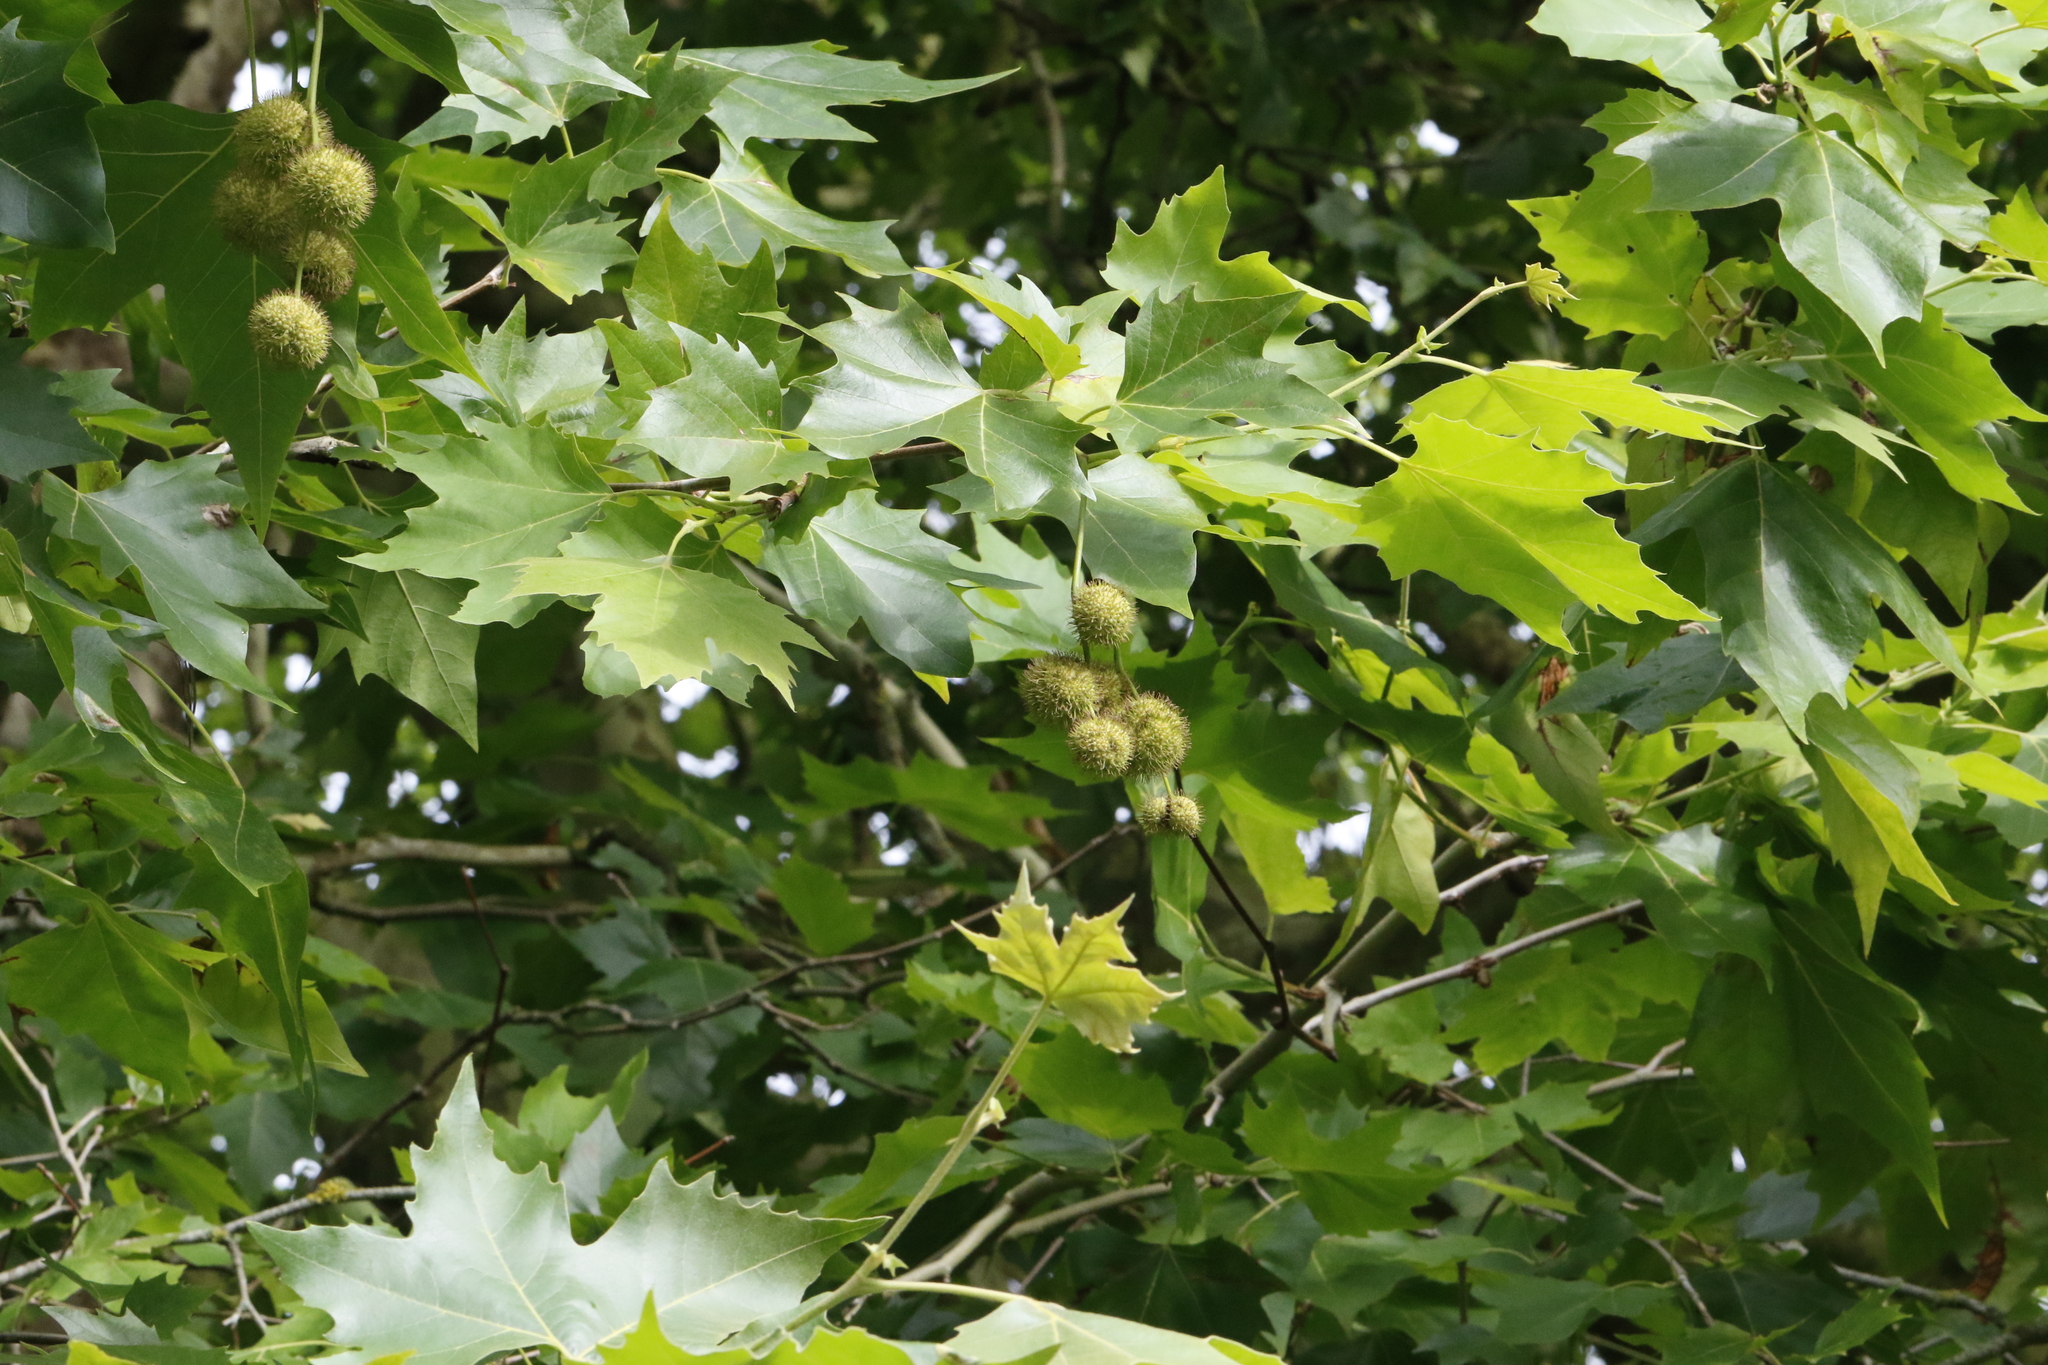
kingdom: Plantae
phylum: Tracheophyta
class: Magnoliopsida
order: Proteales
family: Platanaceae
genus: Platanus
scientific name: Platanus hispanica
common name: London plane
